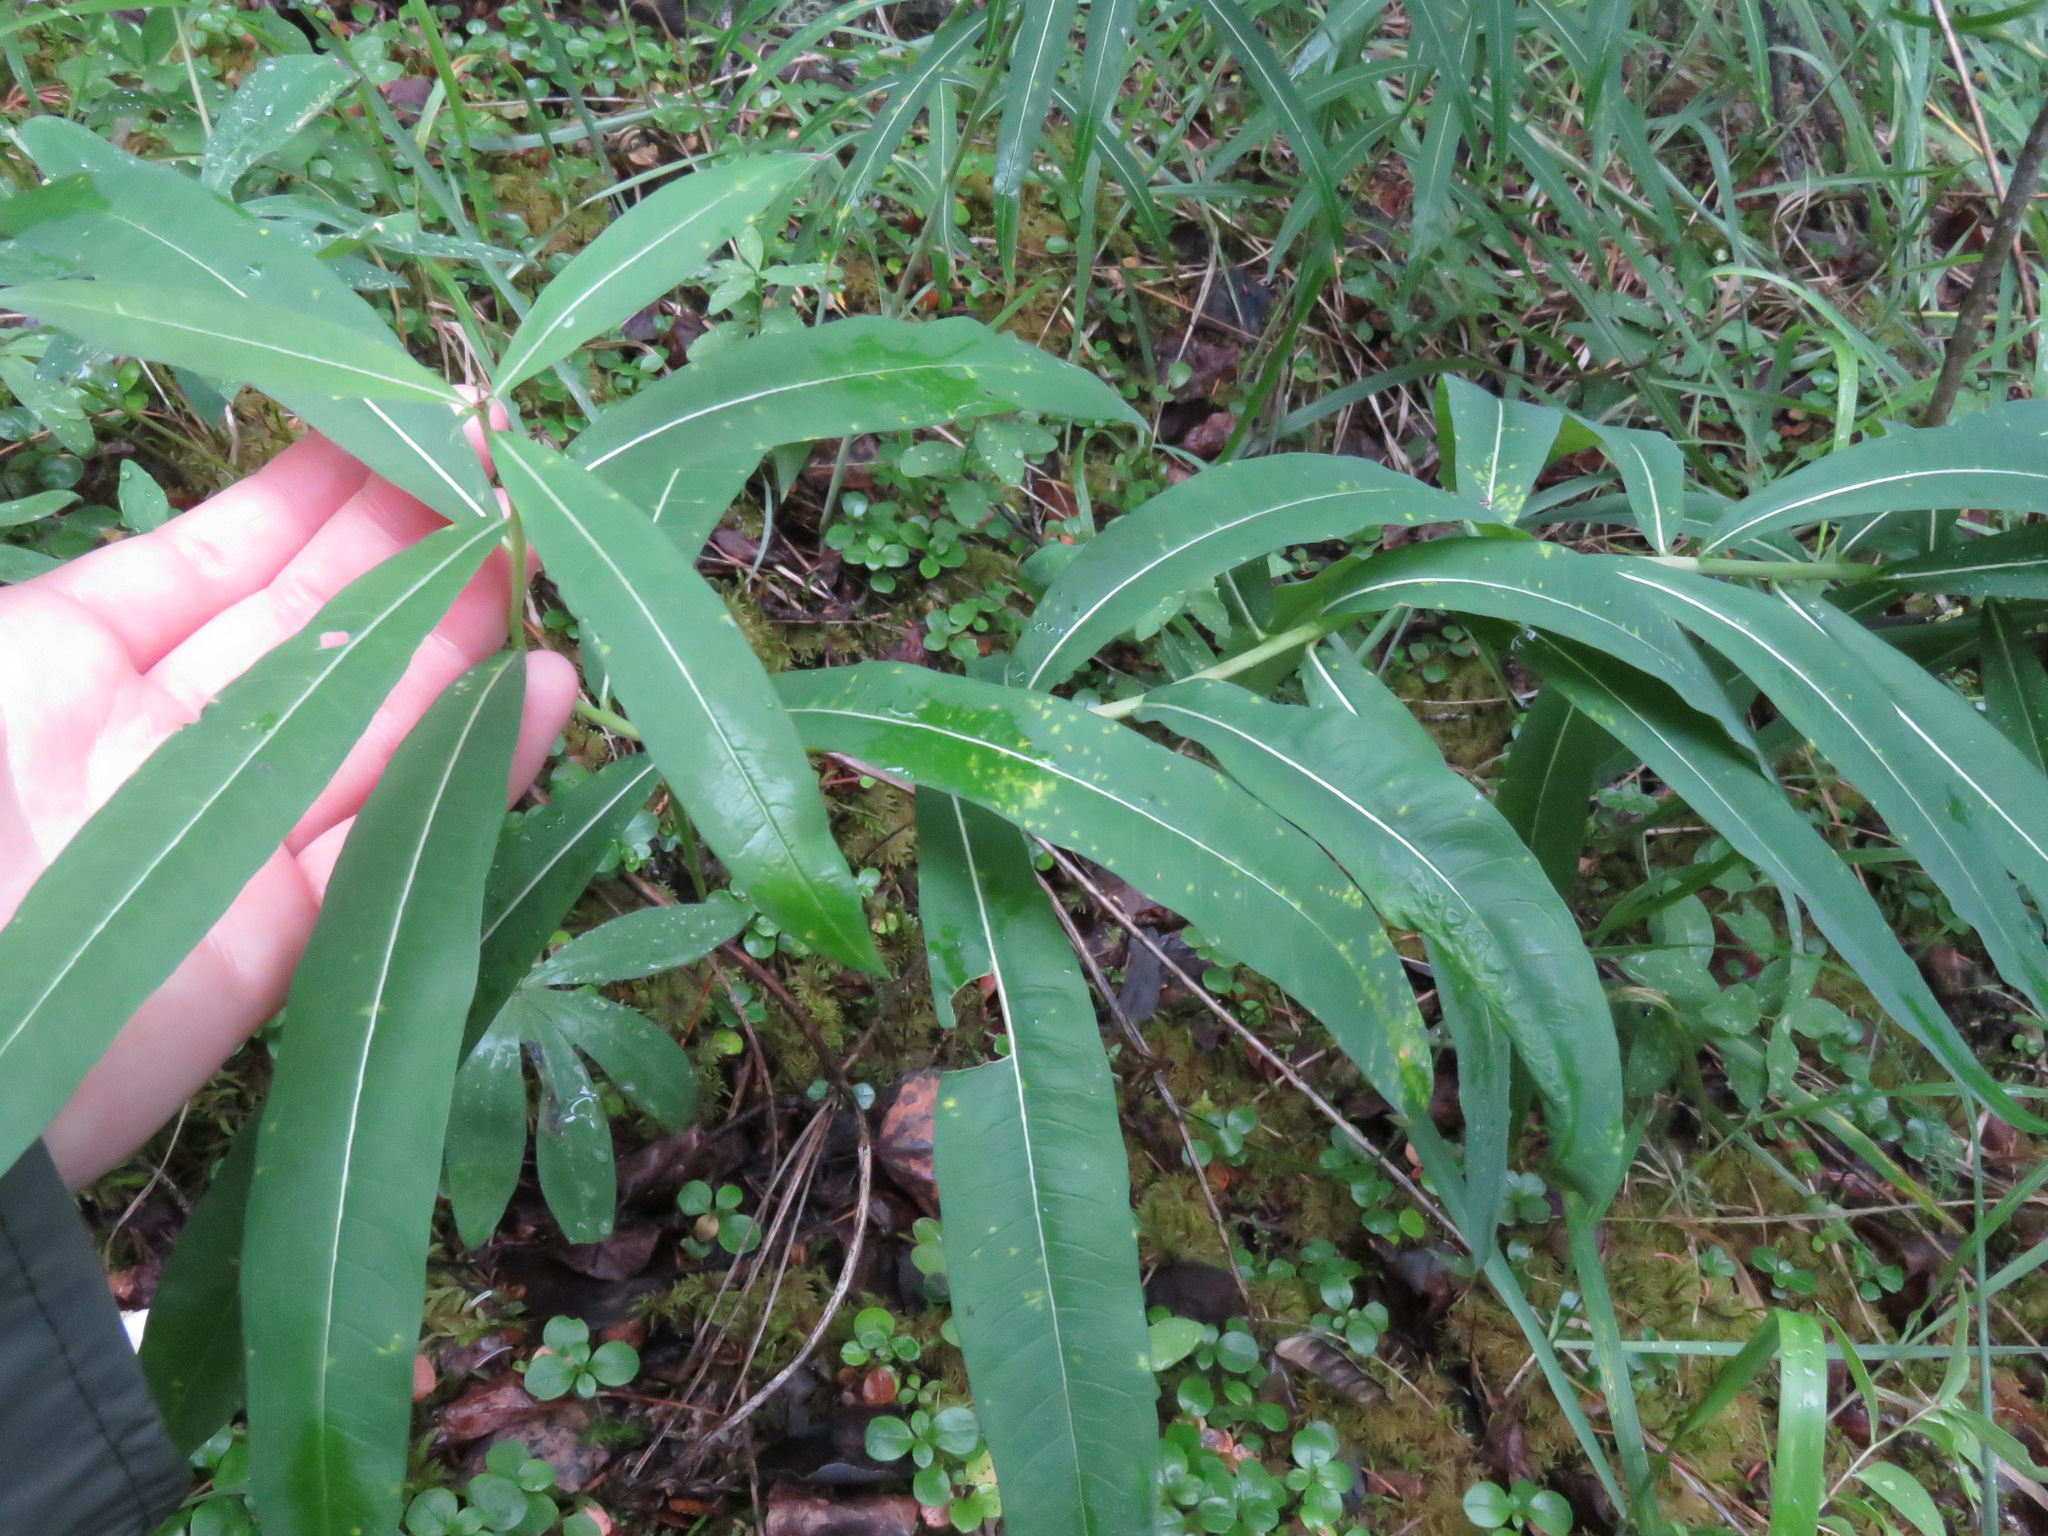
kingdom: Plantae
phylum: Tracheophyta
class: Magnoliopsida
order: Myrtales
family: Onagraceae
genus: Chamaenerion
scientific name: Chamaenerion angustifolium
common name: Fireweed
